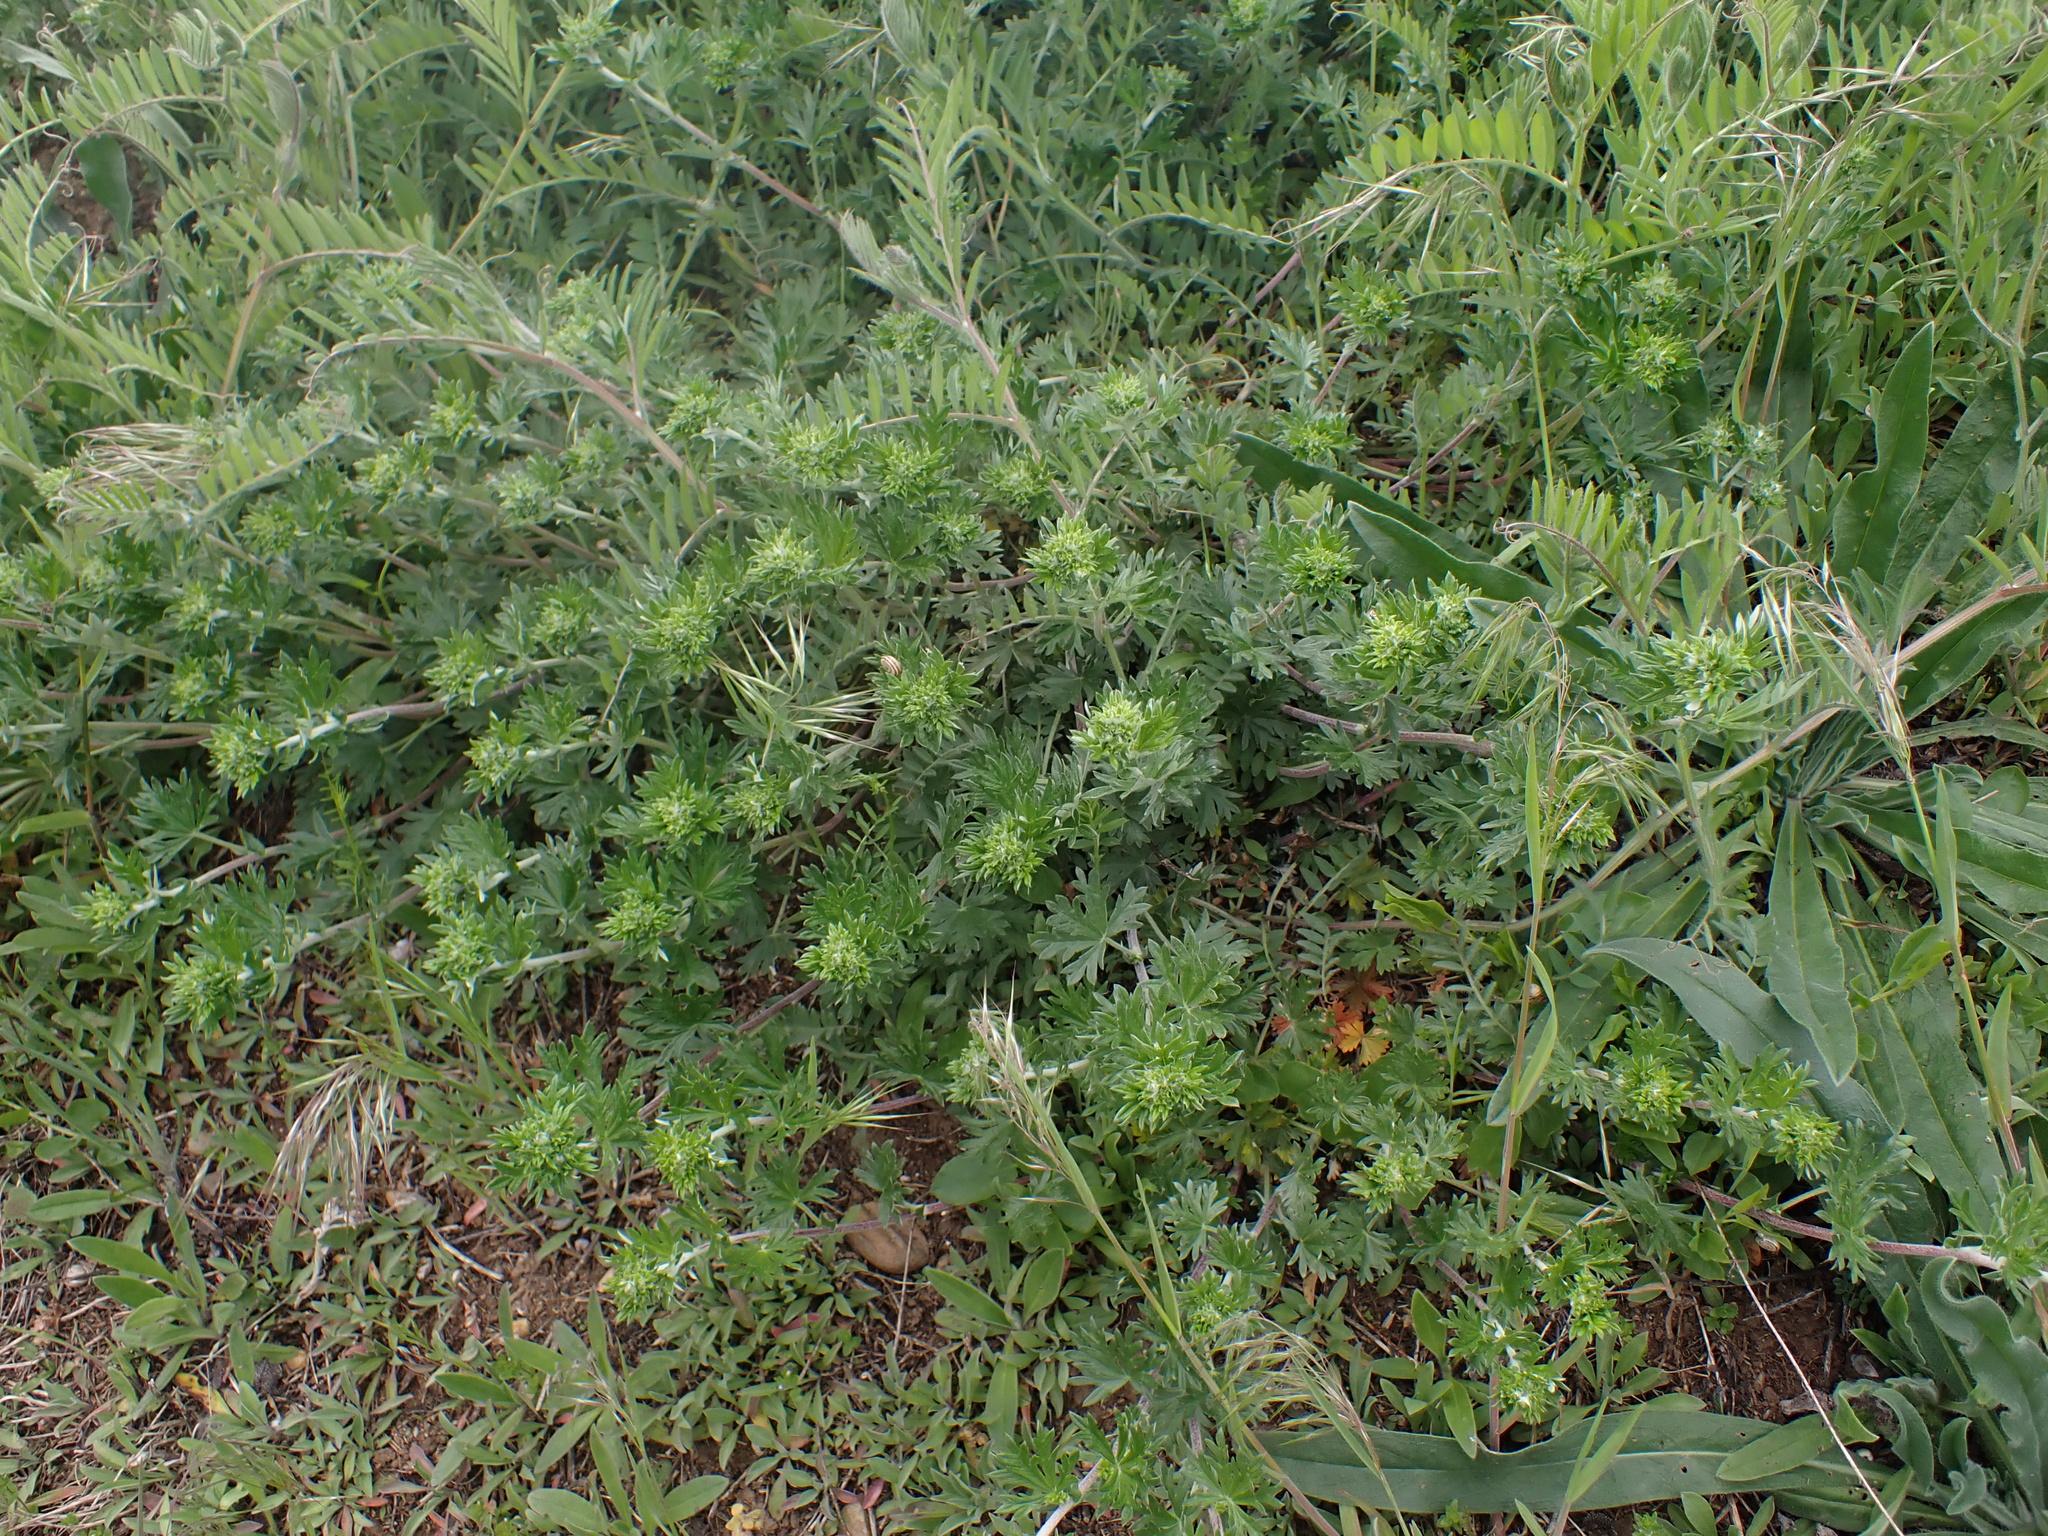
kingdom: Plantae
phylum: Tracheophyta
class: Magnoliopsida
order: Rosales
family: Rosaceae
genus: Potentilla
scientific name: Potentilla argentea
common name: Hoary cinquefoil
